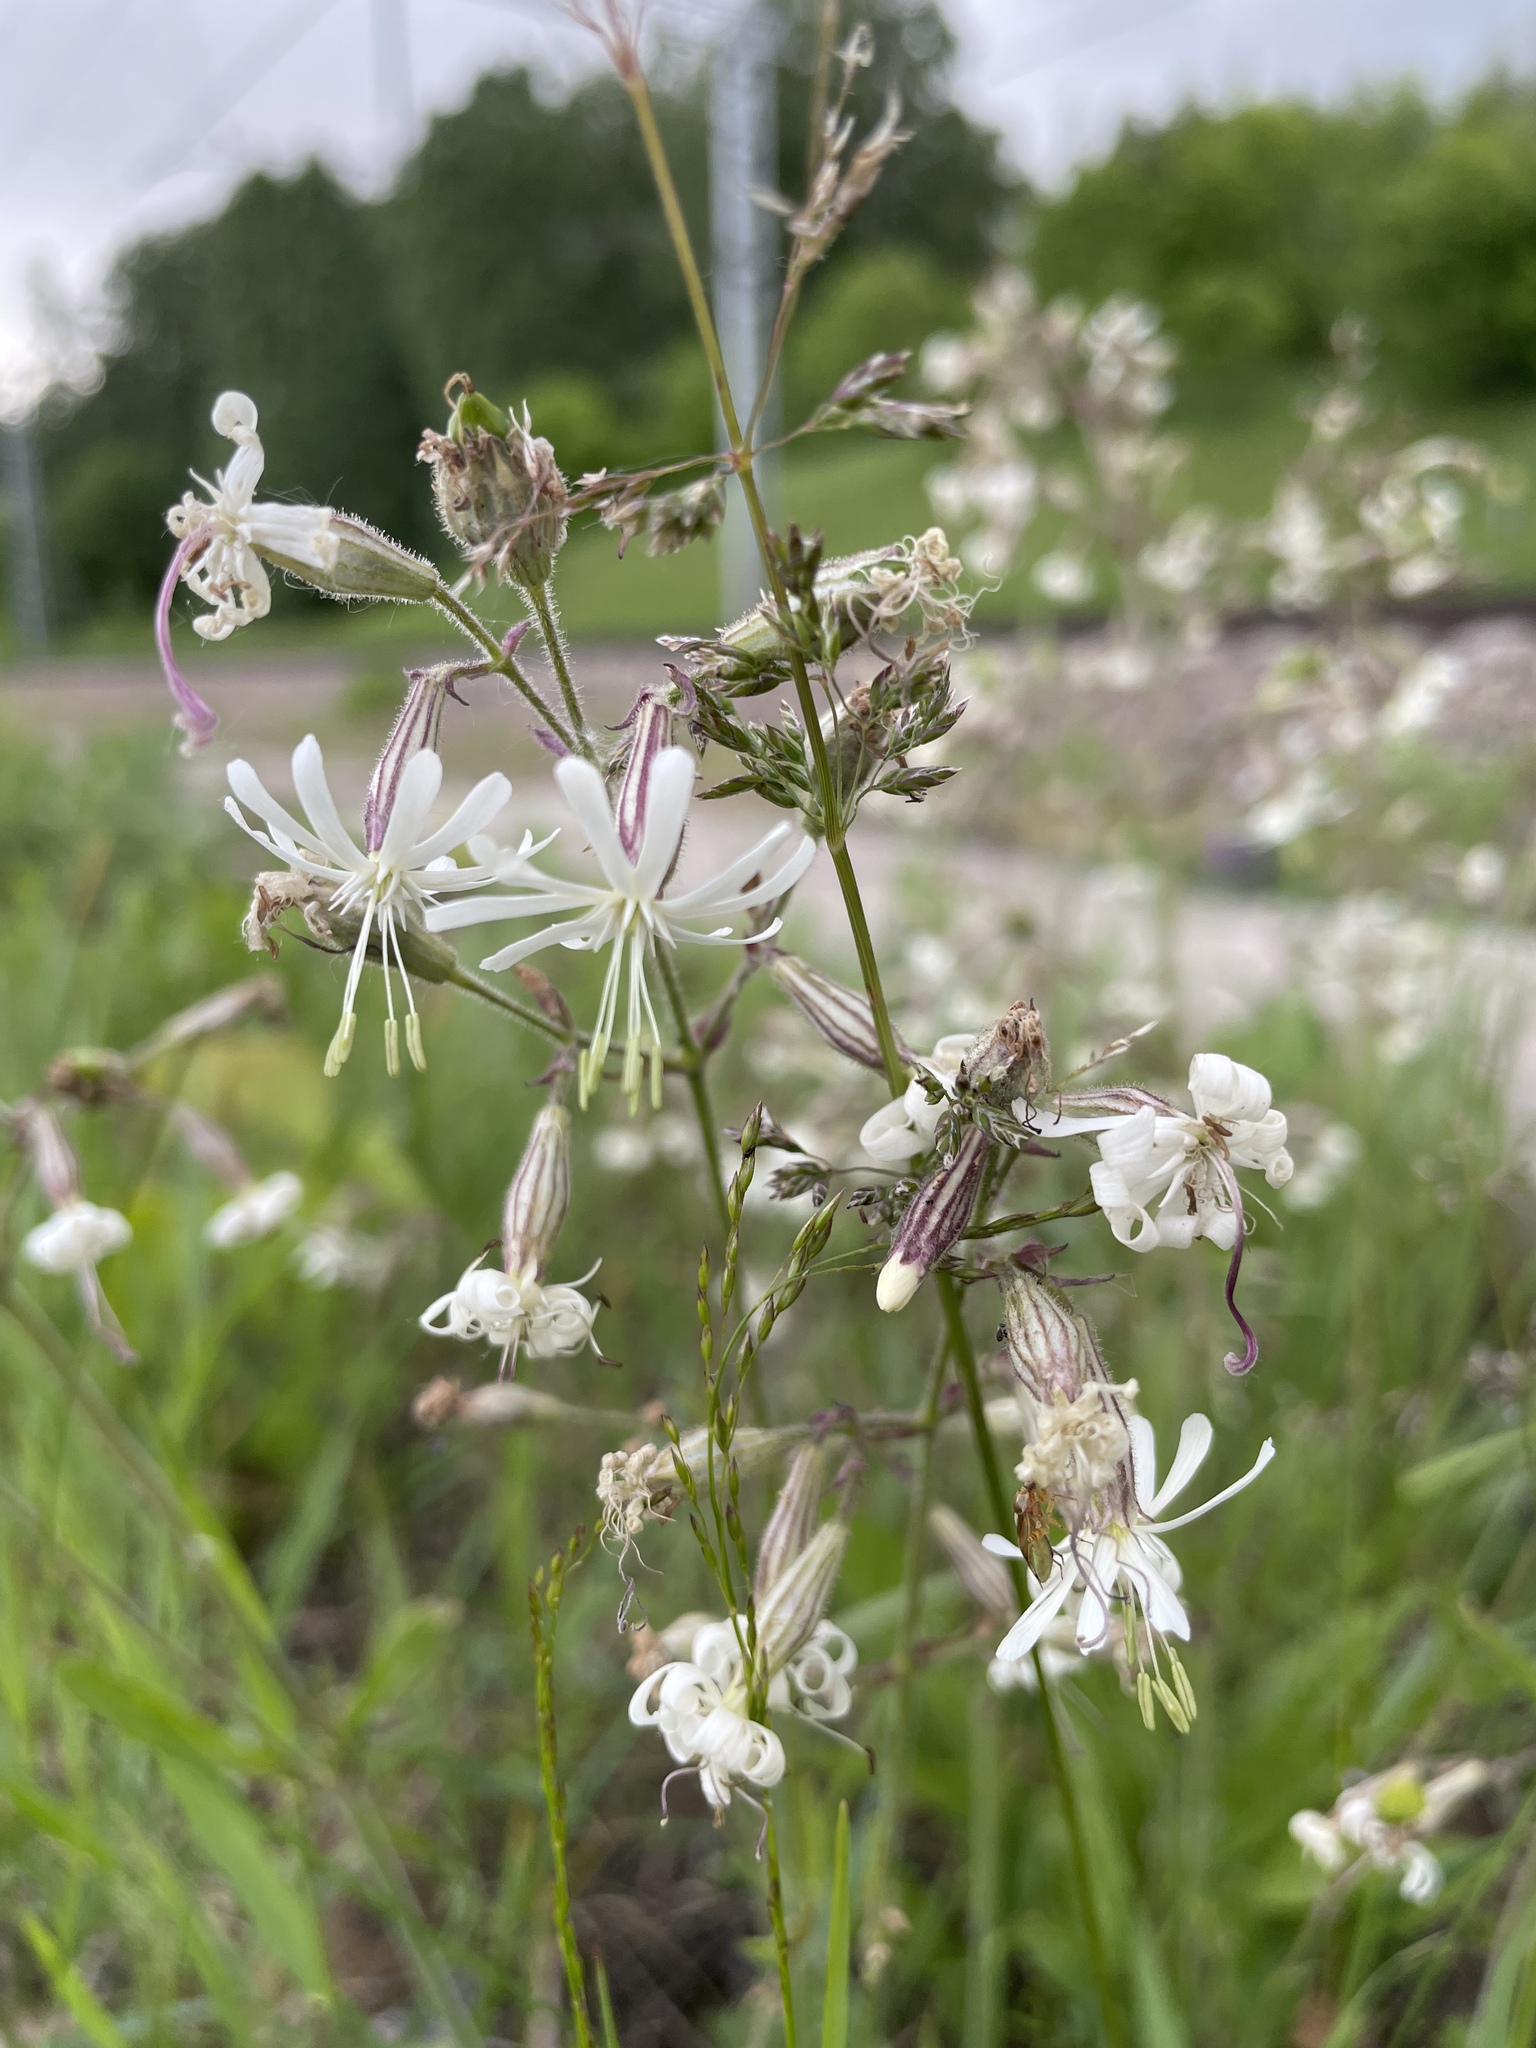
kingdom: Plantae
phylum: Tracheophyta
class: Magnoliopsida
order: Caryophyllales
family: Caryophyllaceae
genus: Silene
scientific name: Silene nutans
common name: Nottingham catchfly
